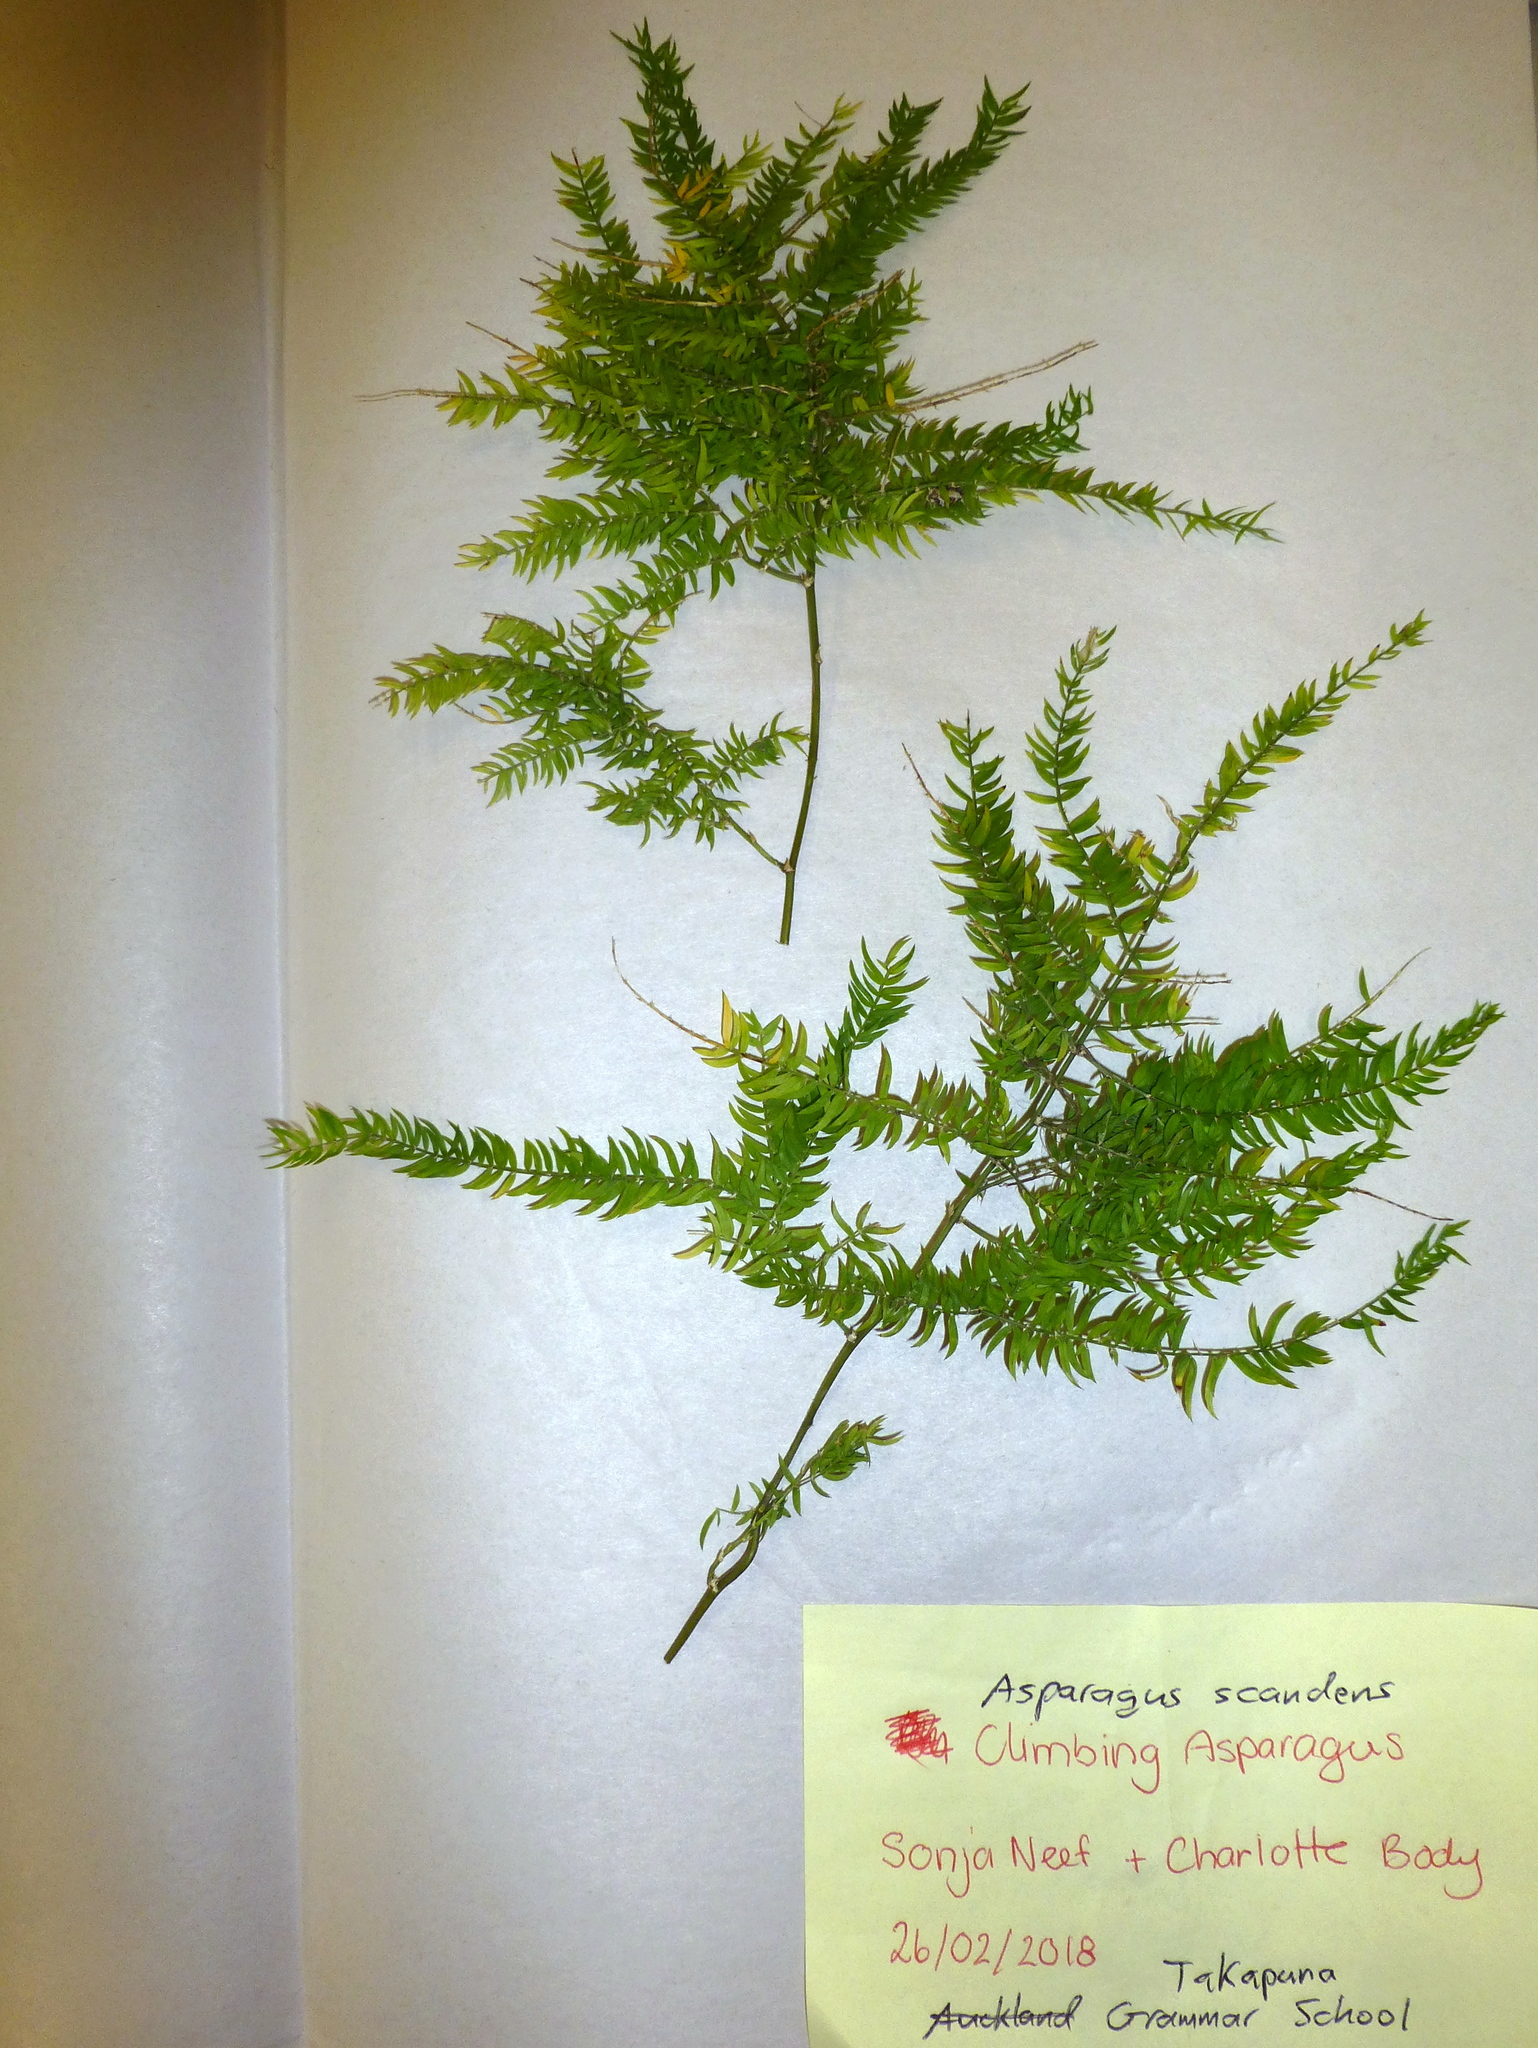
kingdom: Plantae
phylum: Tracheophyta
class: Liliopsida
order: Asparagales
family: Asparagaceae
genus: Asparagus
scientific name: Asparagus scandens
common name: Asparagus-fern
